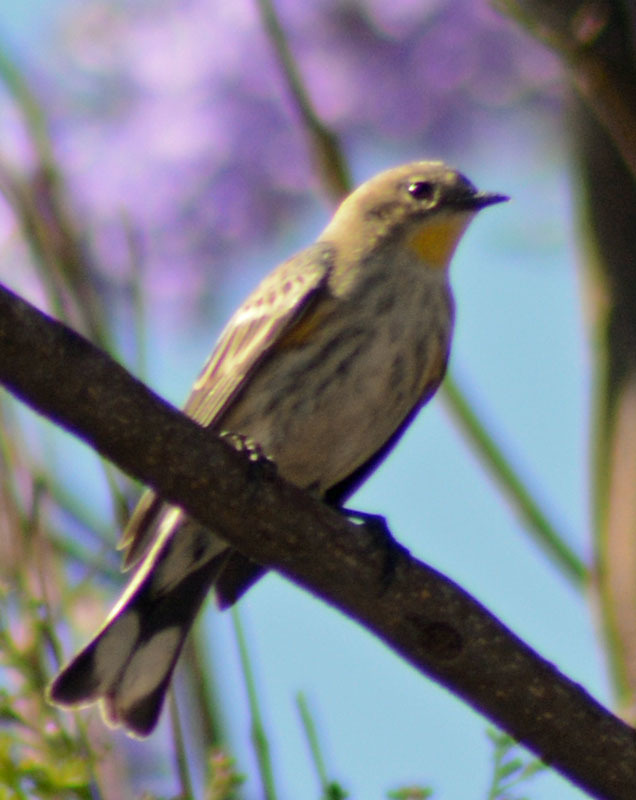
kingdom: Animalia
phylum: Chordata
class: Aves
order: Passeriformes
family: Parulidae
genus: Setophaga
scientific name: Setophaga auduboni
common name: Audubon's warbler
